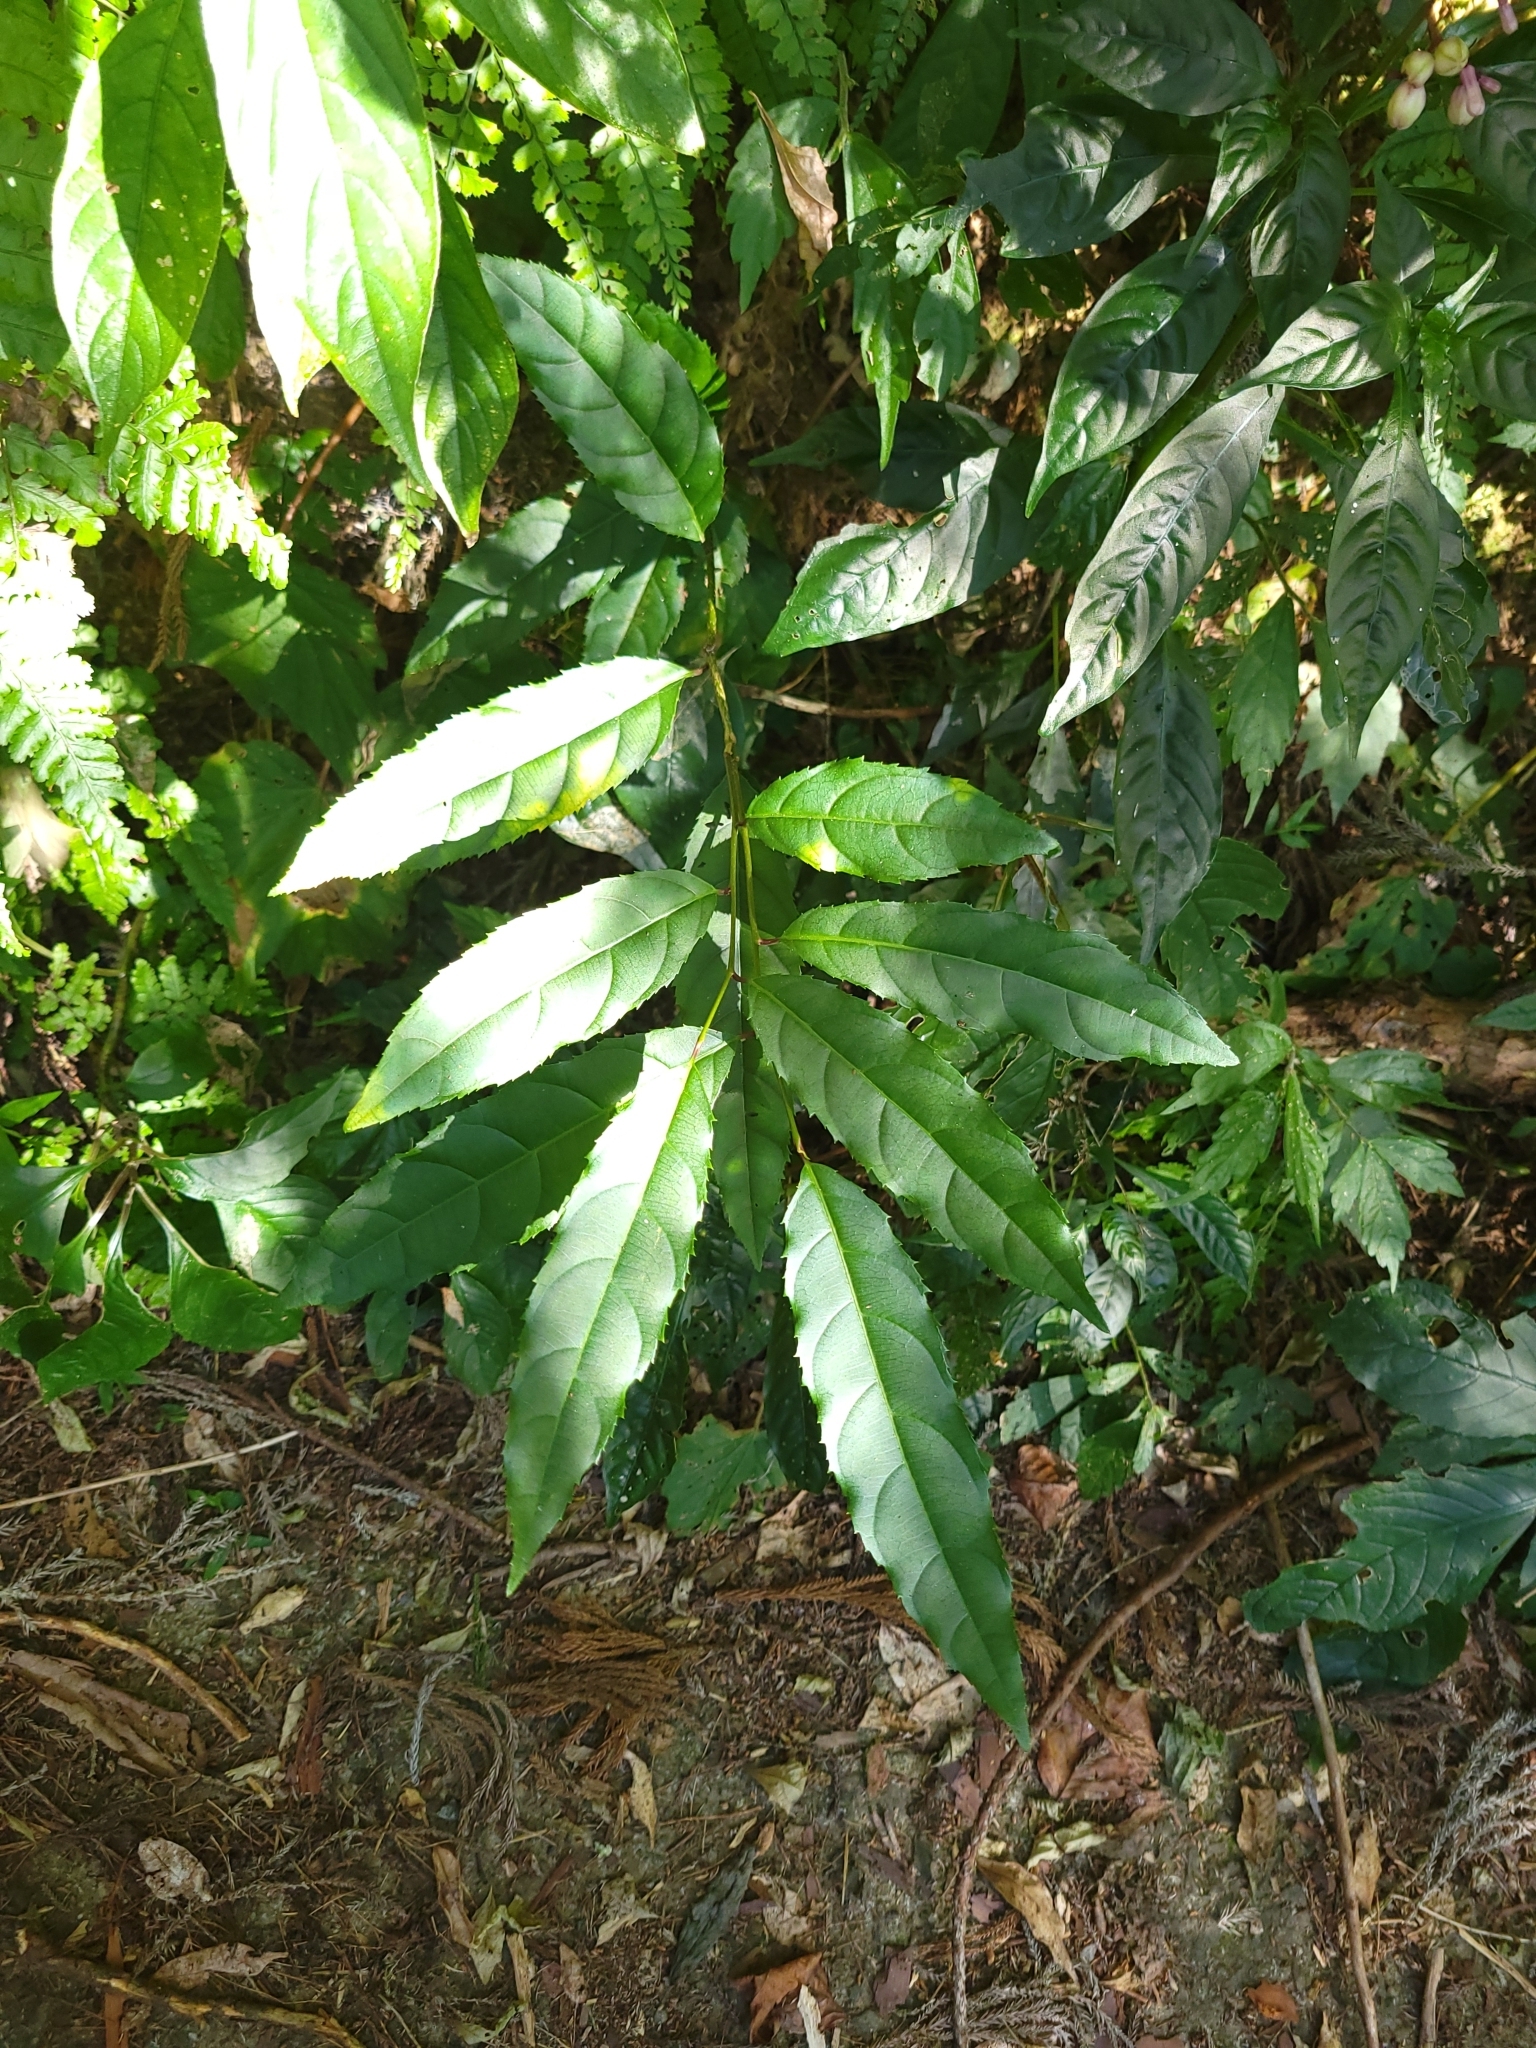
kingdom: Plantae
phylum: Tracheophyta
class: Magnoliopsida
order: Saxifragales
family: Iteaceae
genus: Itea
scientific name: Itea parviflora
